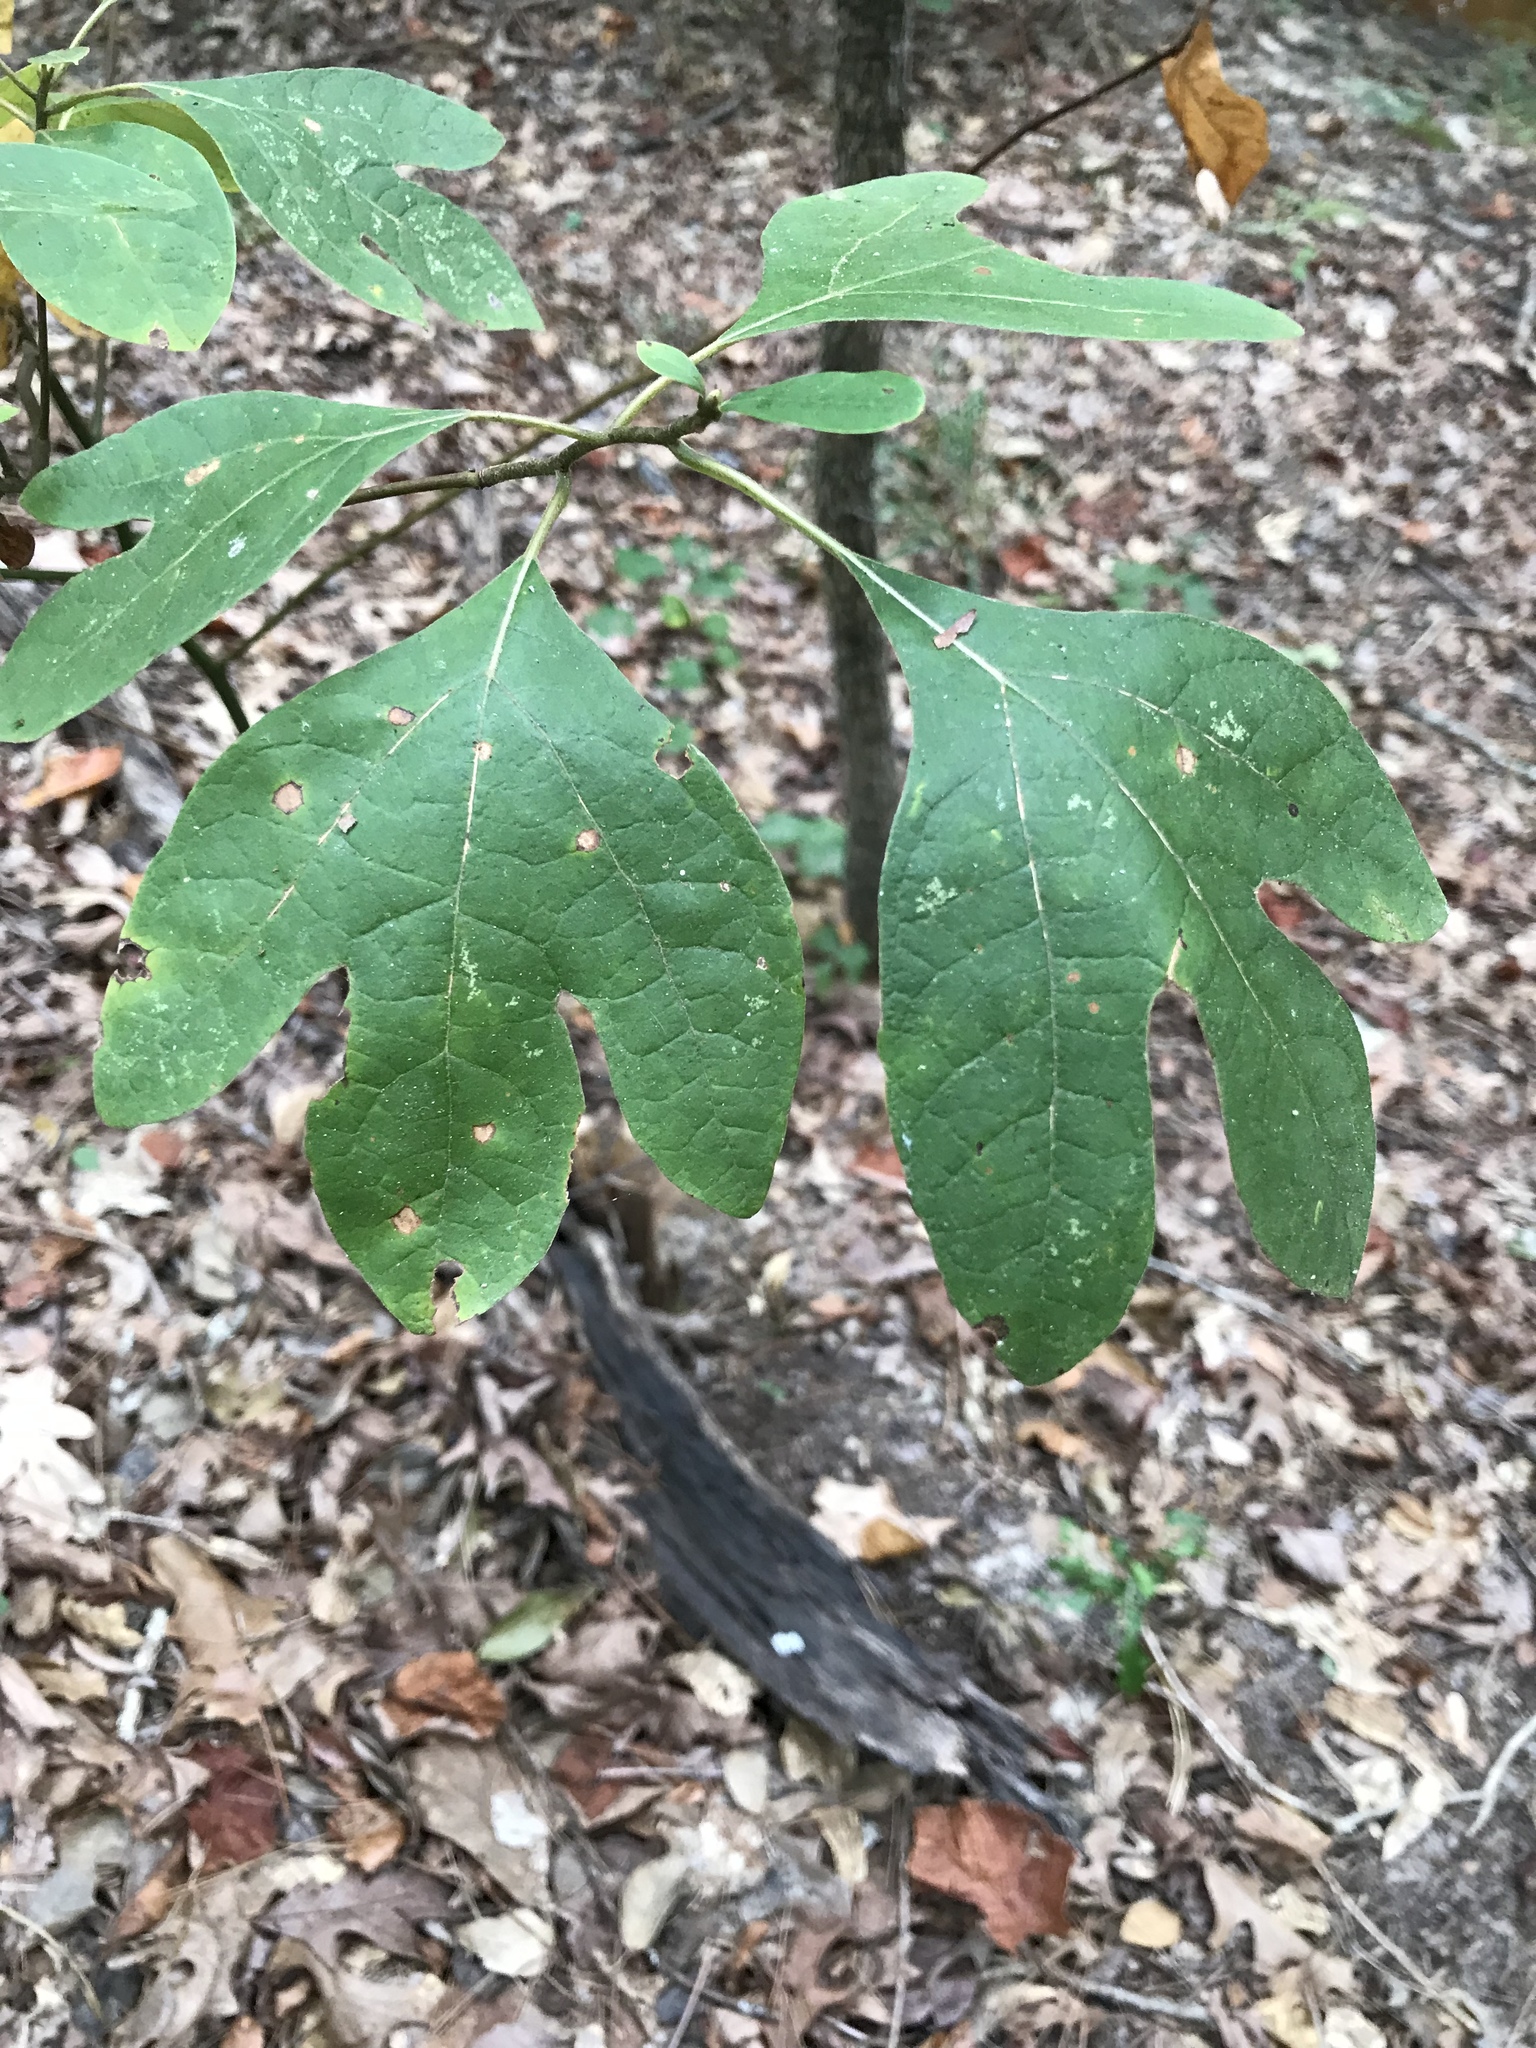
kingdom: Plantae
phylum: Tracheophyta
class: Magnoliopsida
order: Laurales
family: Lauraceae
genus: Sassafras
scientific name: Sassafras albidum
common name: Sassafras
